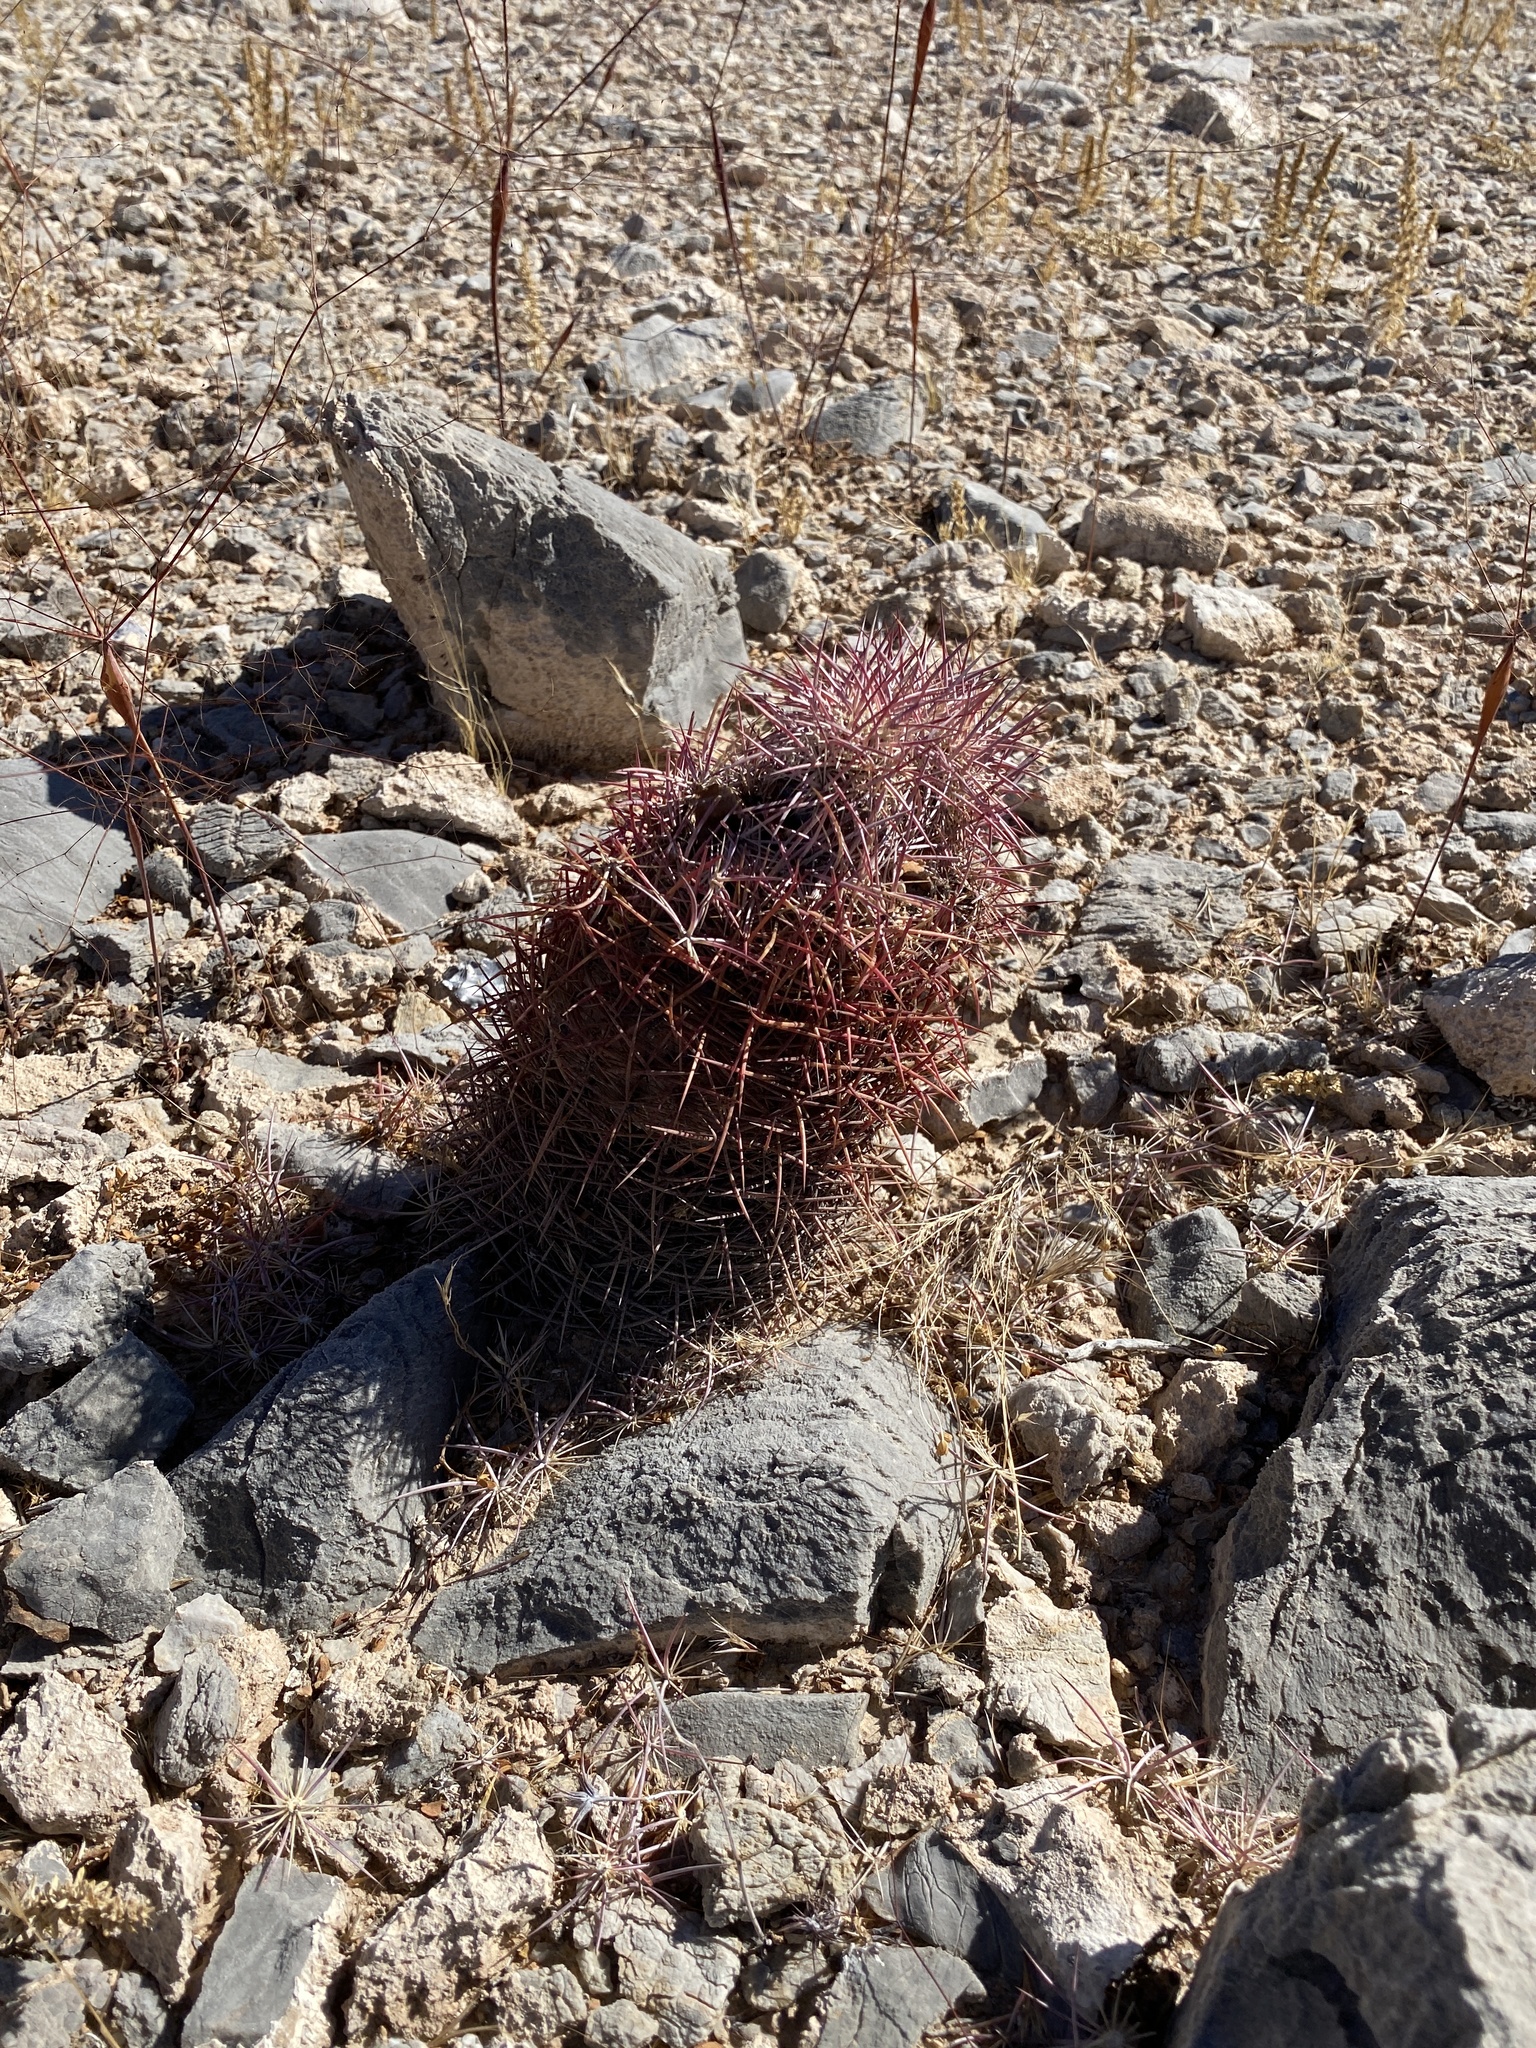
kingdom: Plantae
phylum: Tracheophyta
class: Magnoliopsida
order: Caryophyllales
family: Cactaceae
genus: Sclerocactus
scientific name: Sclerocactus johnsonii
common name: Eight-spine fishhook cactus
